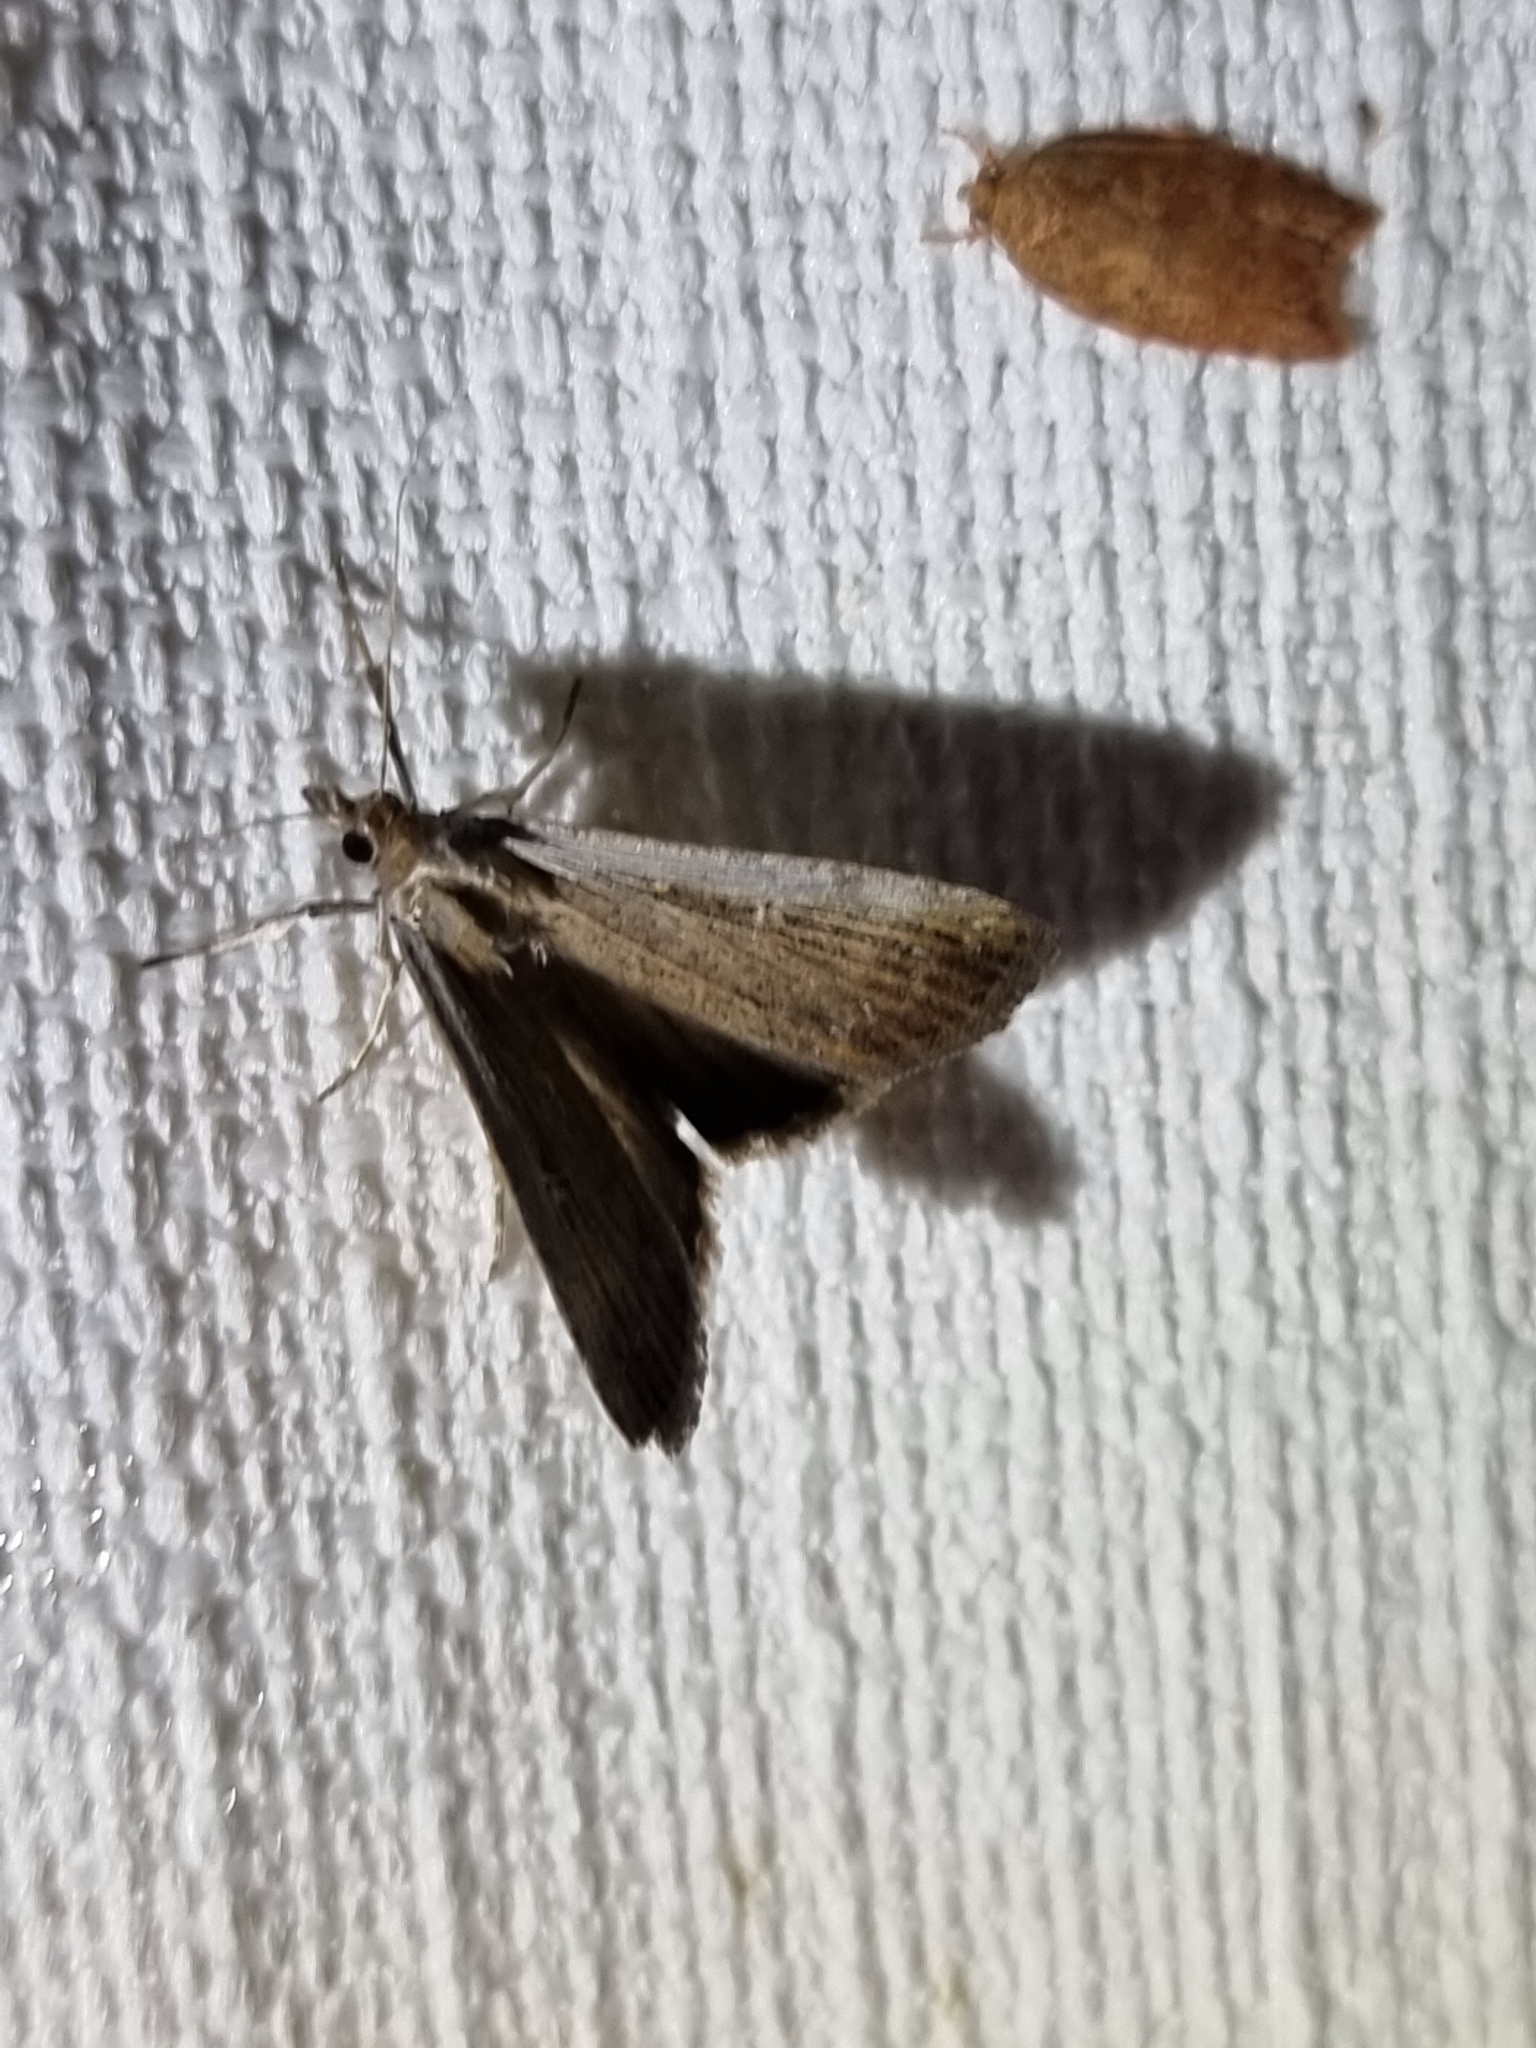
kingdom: Animalia
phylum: Arthropoda
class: Insecta
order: Lepidoptera
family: Noctuidae
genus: Tathorhynchus
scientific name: Tathorhynchus fallax
